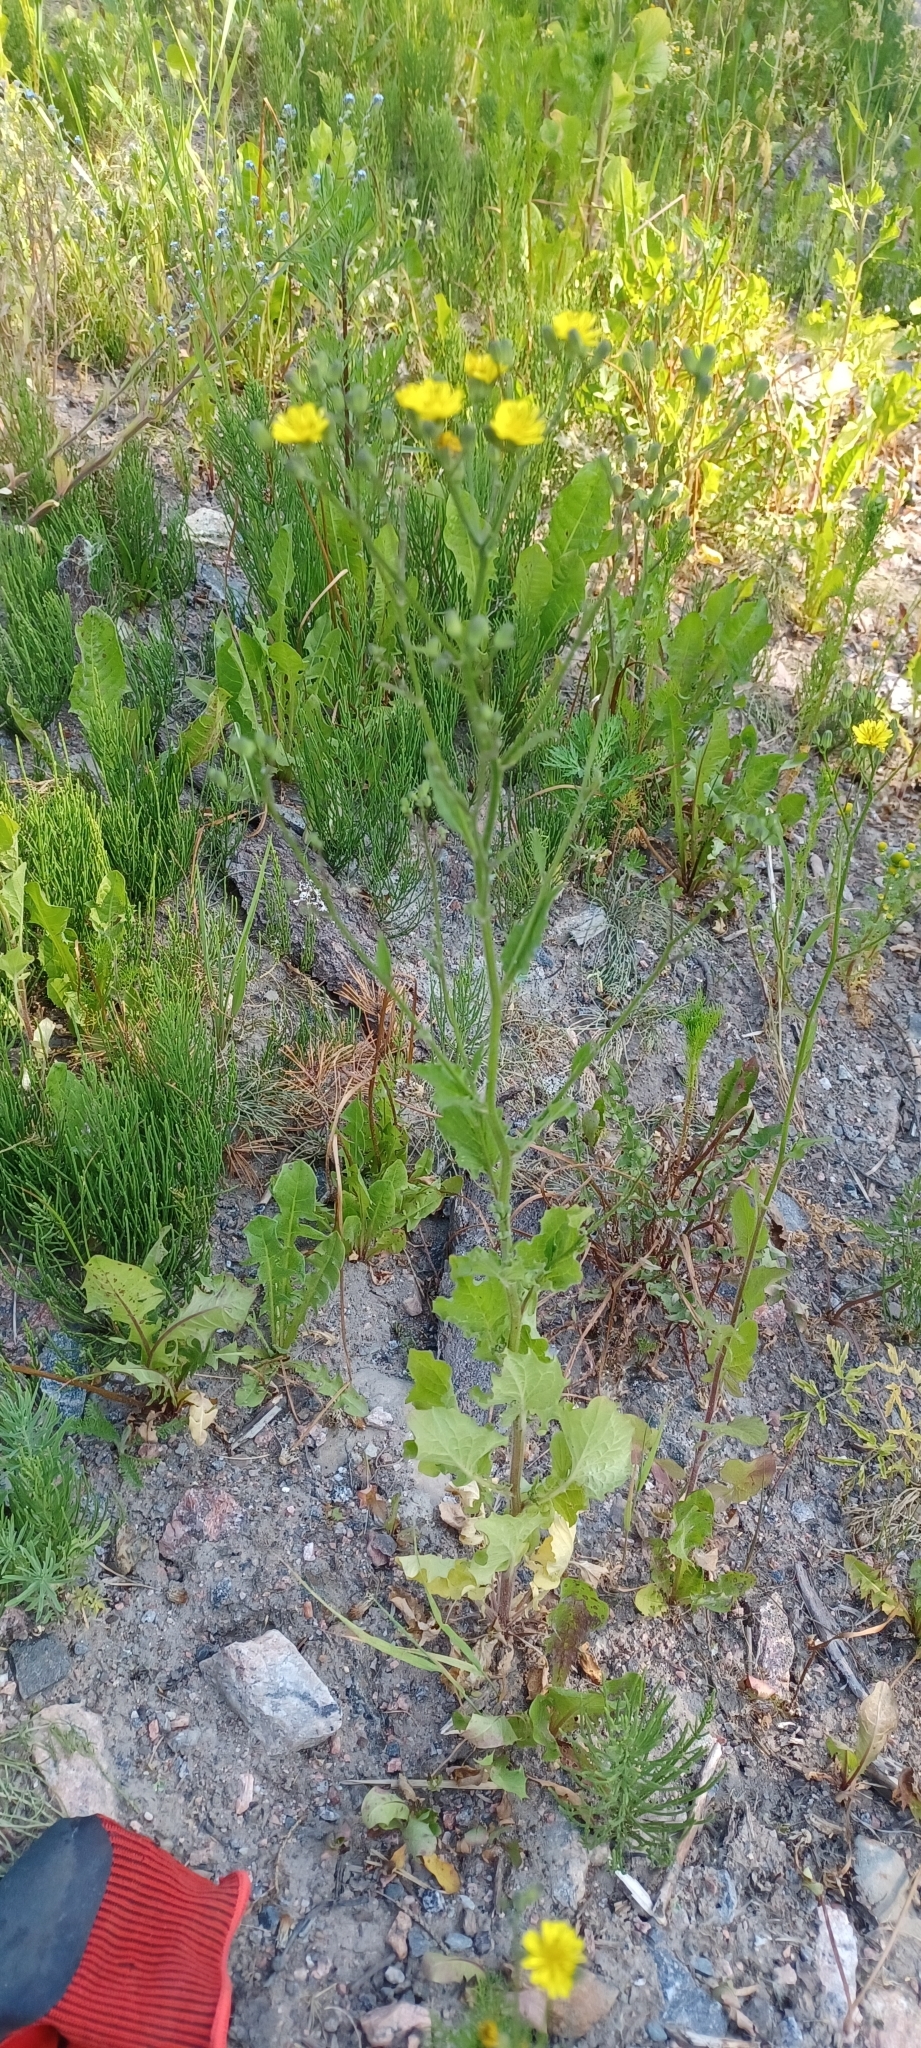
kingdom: Plantae
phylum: Tracheophyta
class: Magnoliopsida
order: Asterales
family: Asteraceae
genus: Lapsana
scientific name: Lapsana communis
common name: Nipplewort
